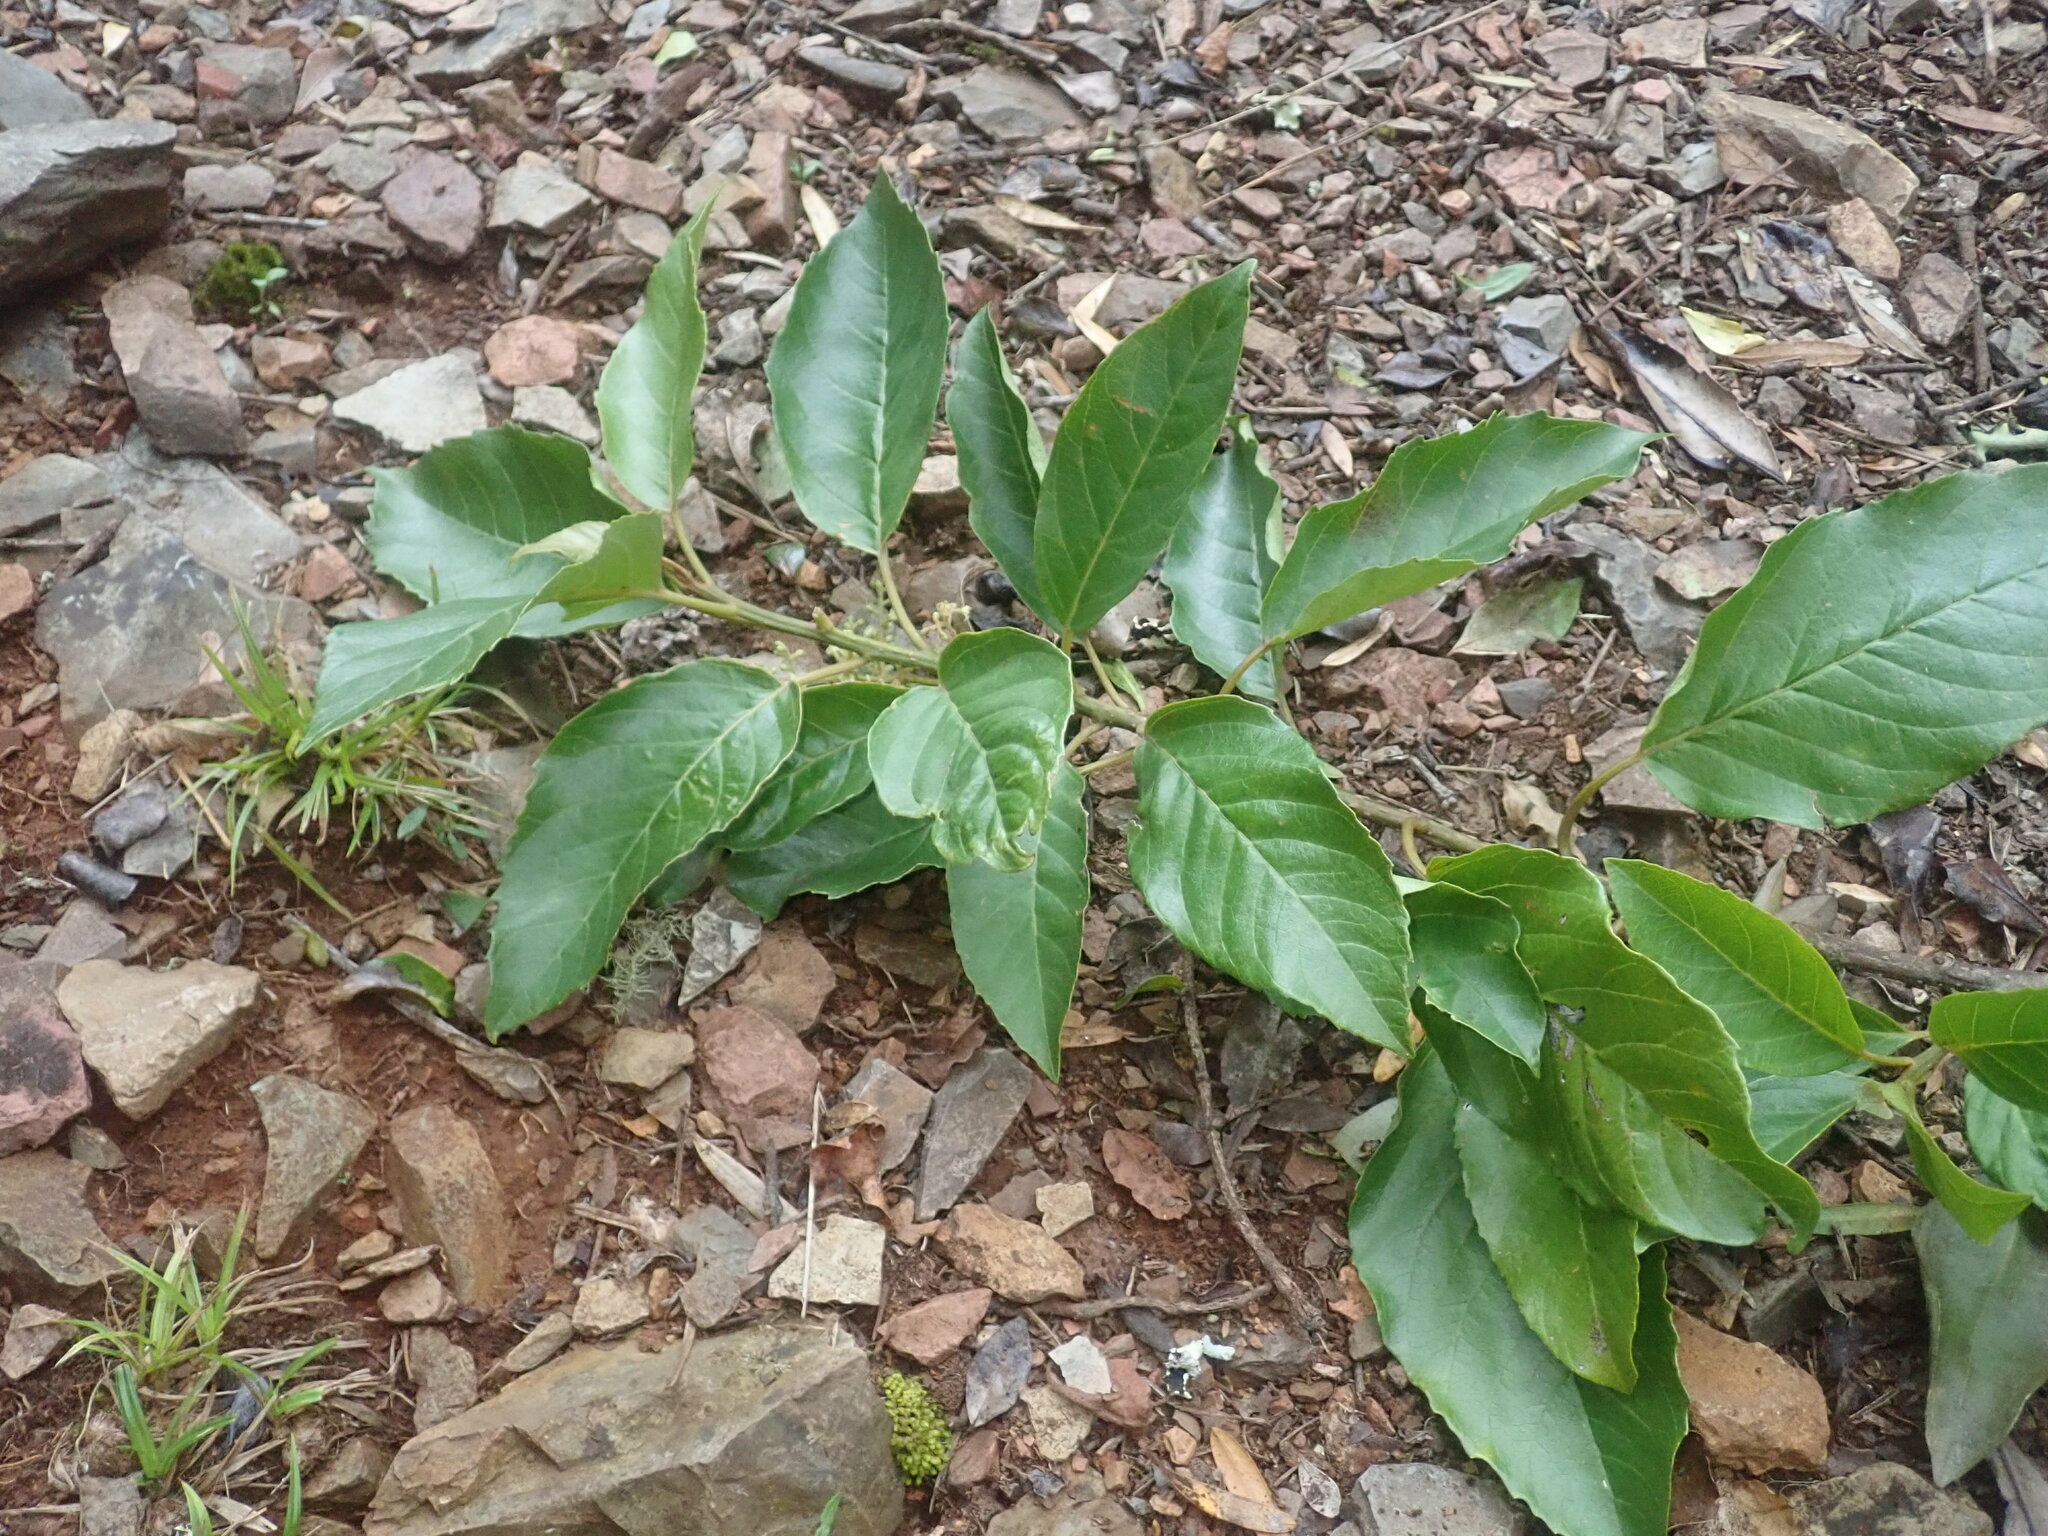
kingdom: Plantae
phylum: Tracheophyta
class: Magnoliopsida
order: Ericales
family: Primulaceae
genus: Maesa
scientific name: Maesa lanceolata
